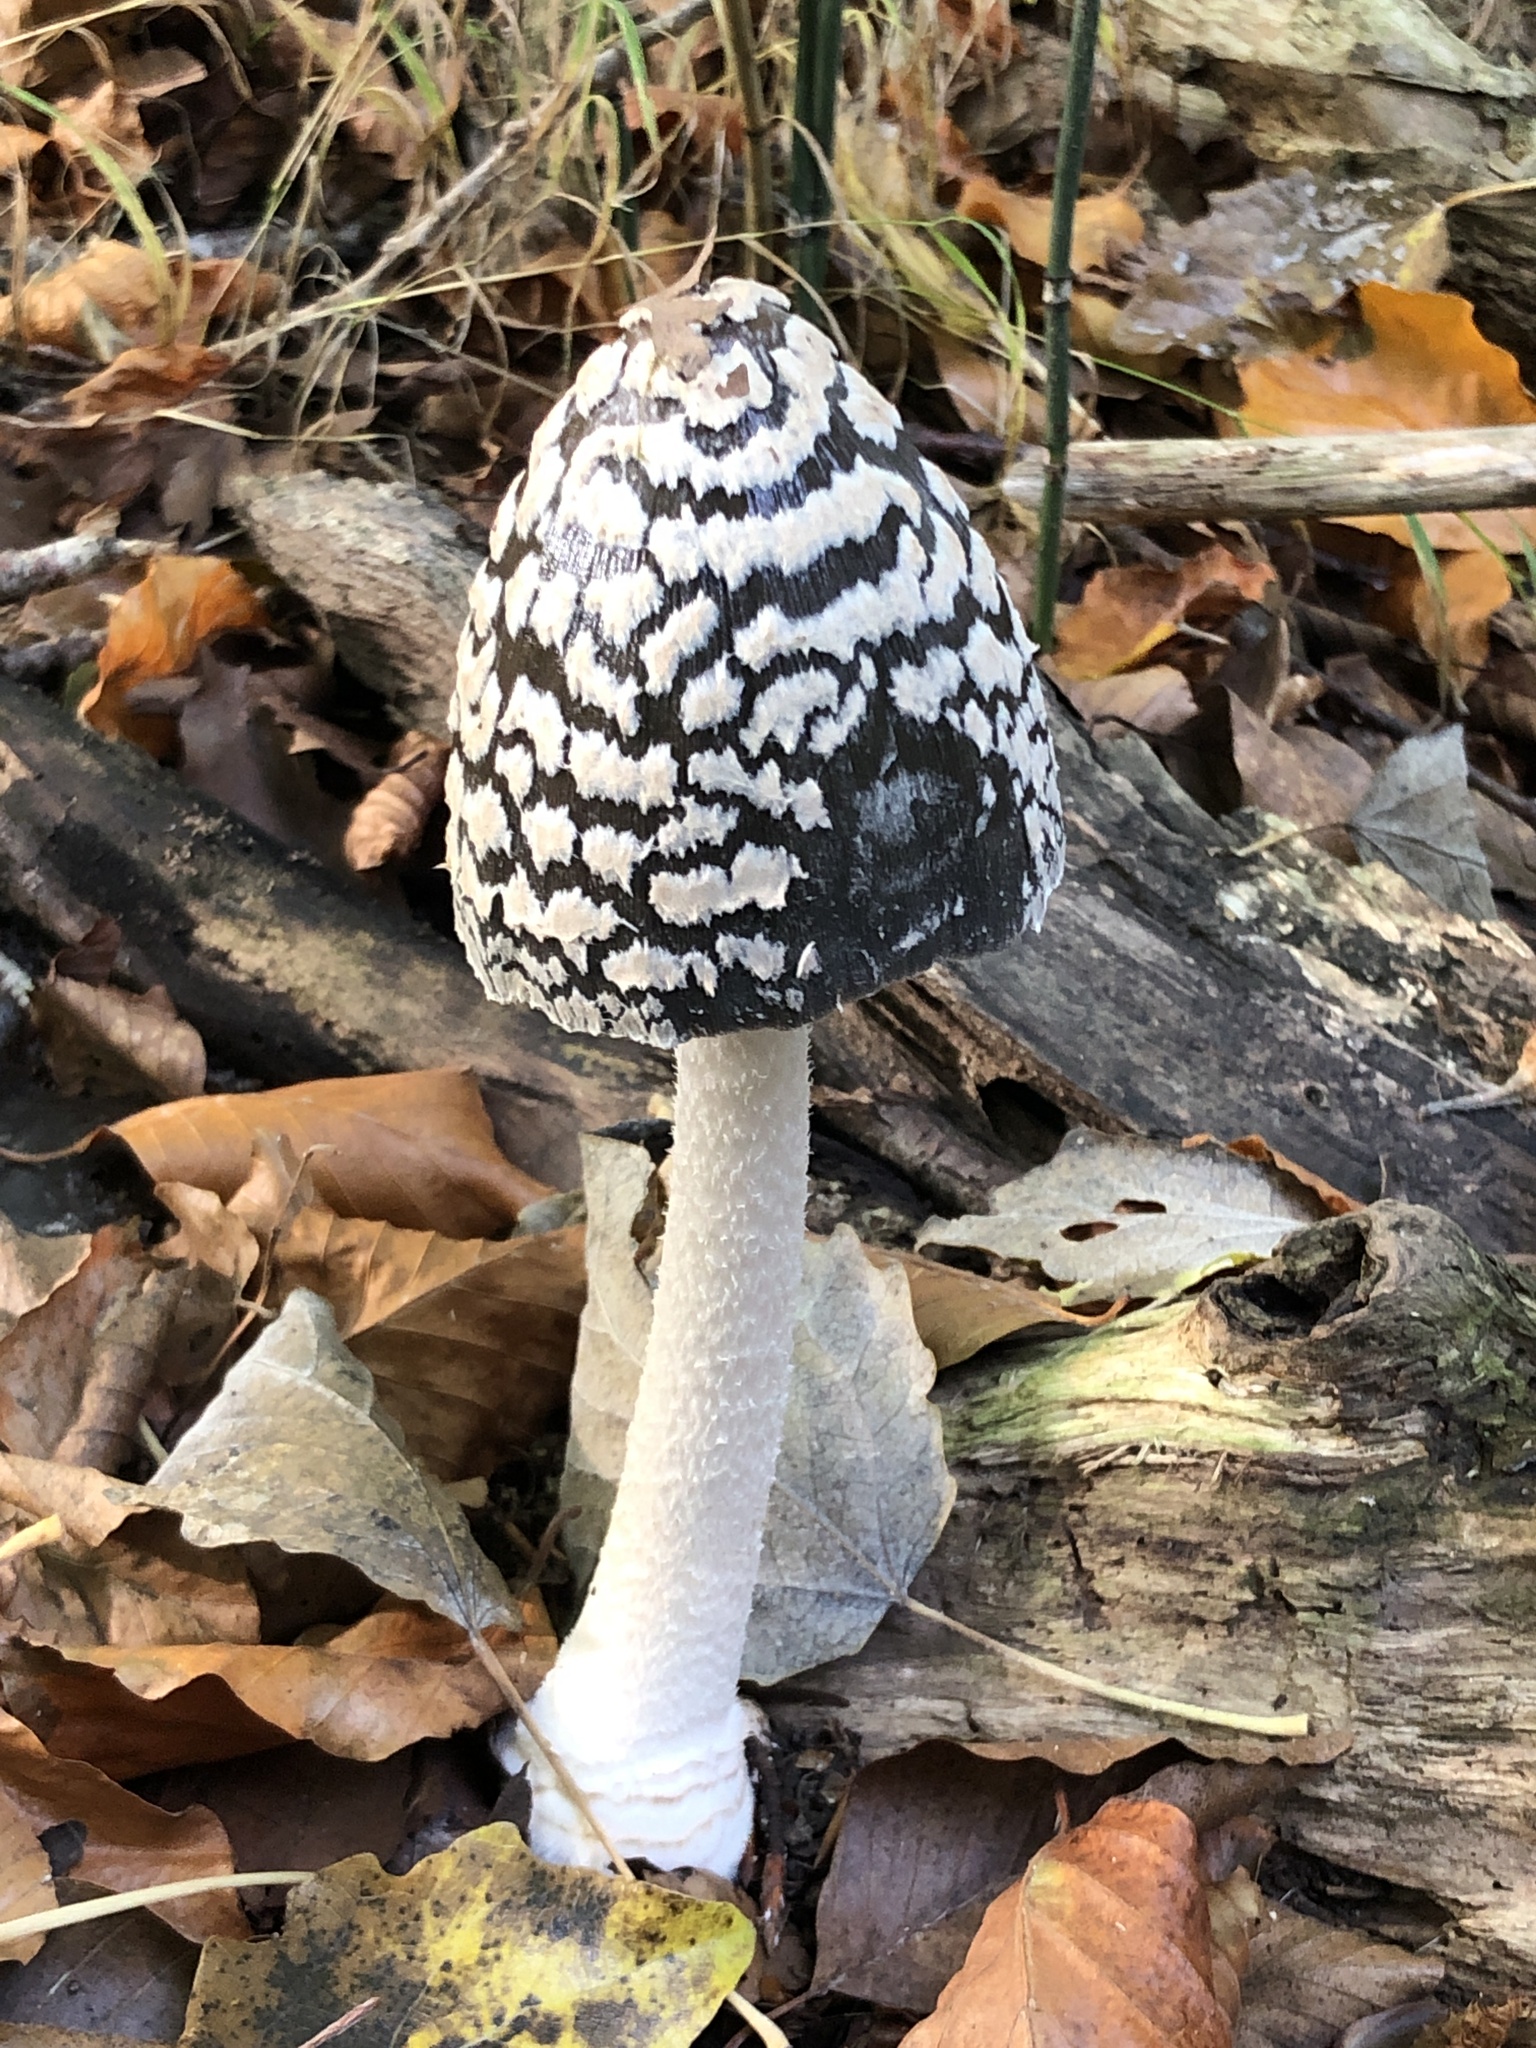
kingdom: Fungi
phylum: Basidiomycota
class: Agaricomycetes
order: Agaricales
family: Psathyrellaceae
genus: Coprinopsis
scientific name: Coprinopsis picacea
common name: Magpie inkcap
